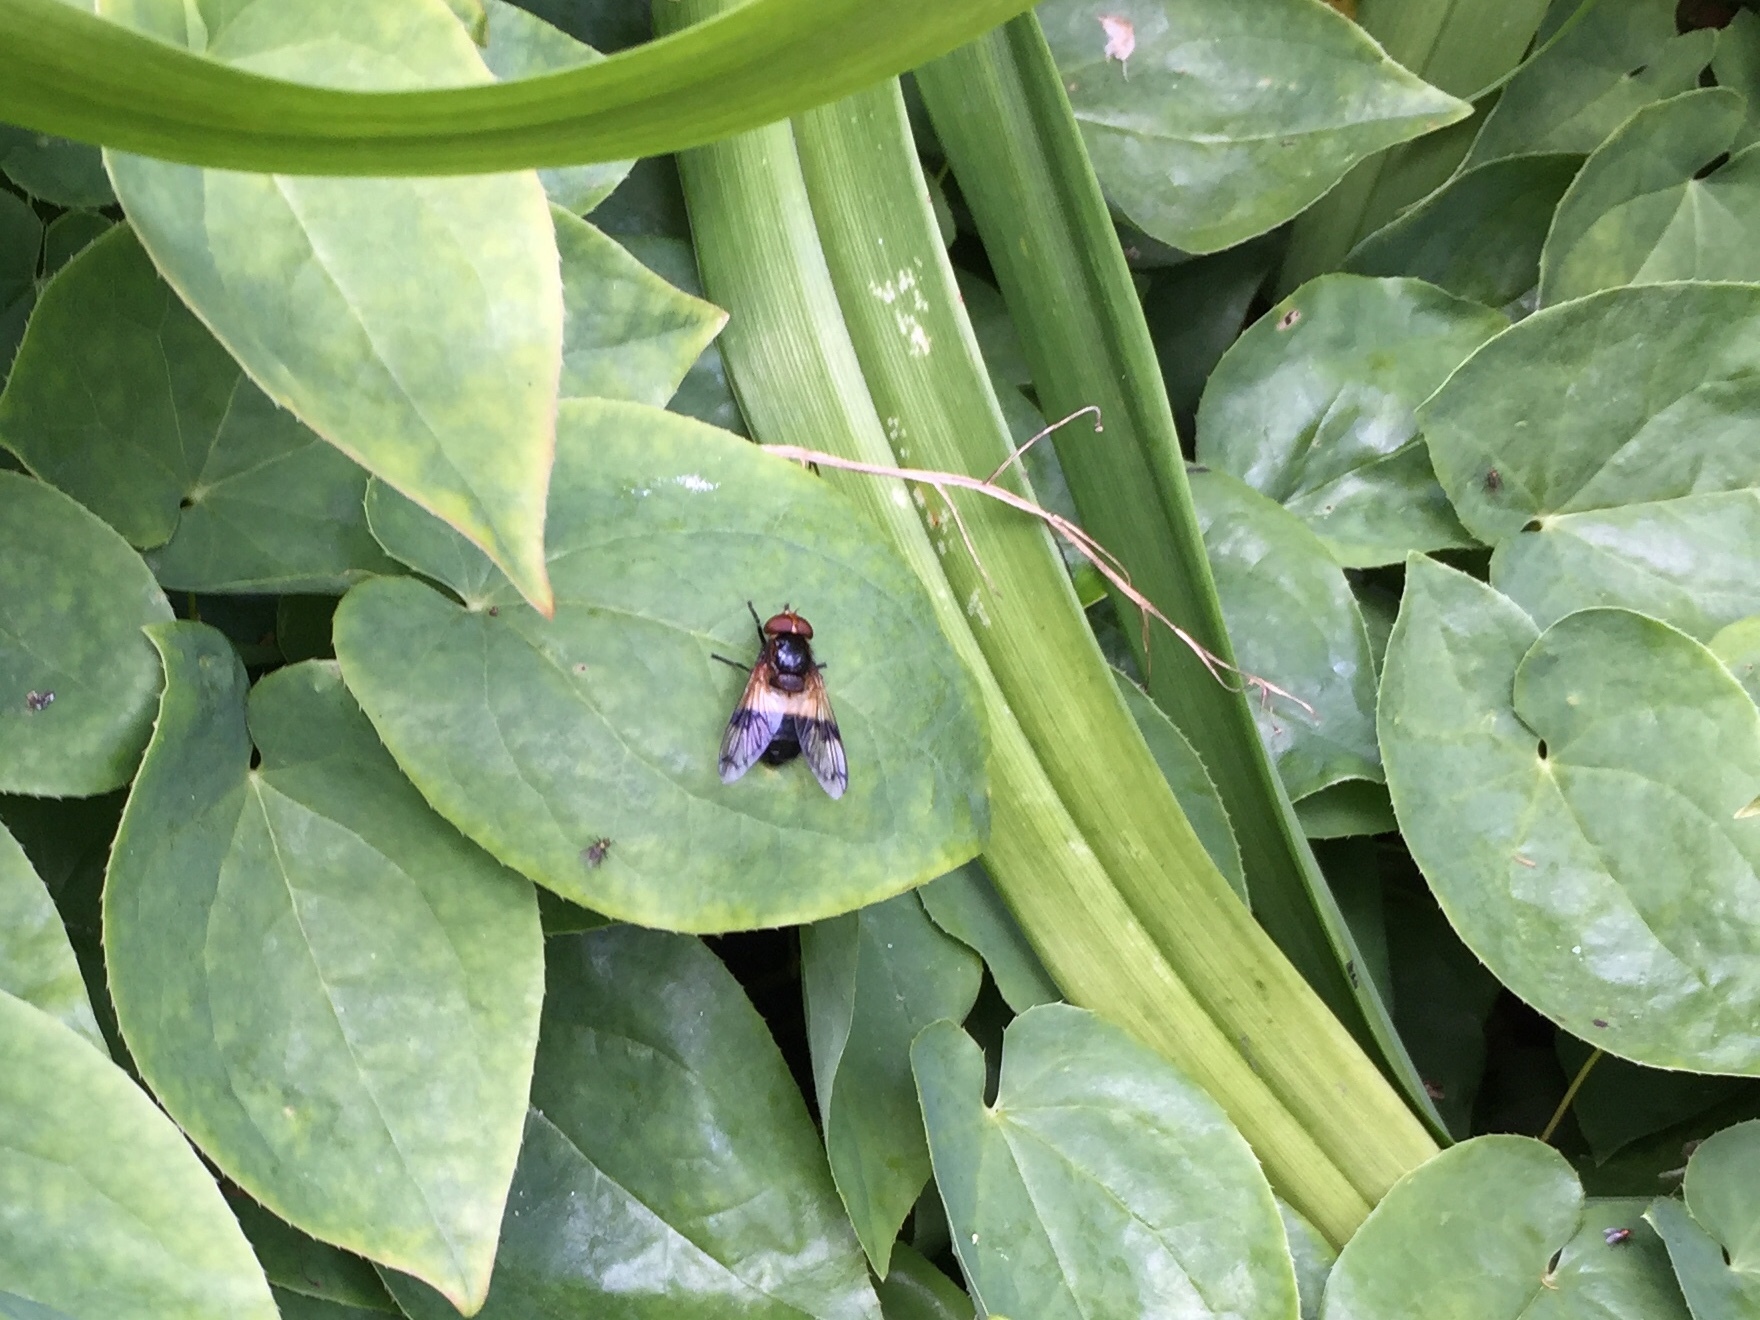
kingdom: Animalia
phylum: Arthropoda
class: Insecta
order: Diptera
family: Syrphidae
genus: Volucella
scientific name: Volucella pellucens
